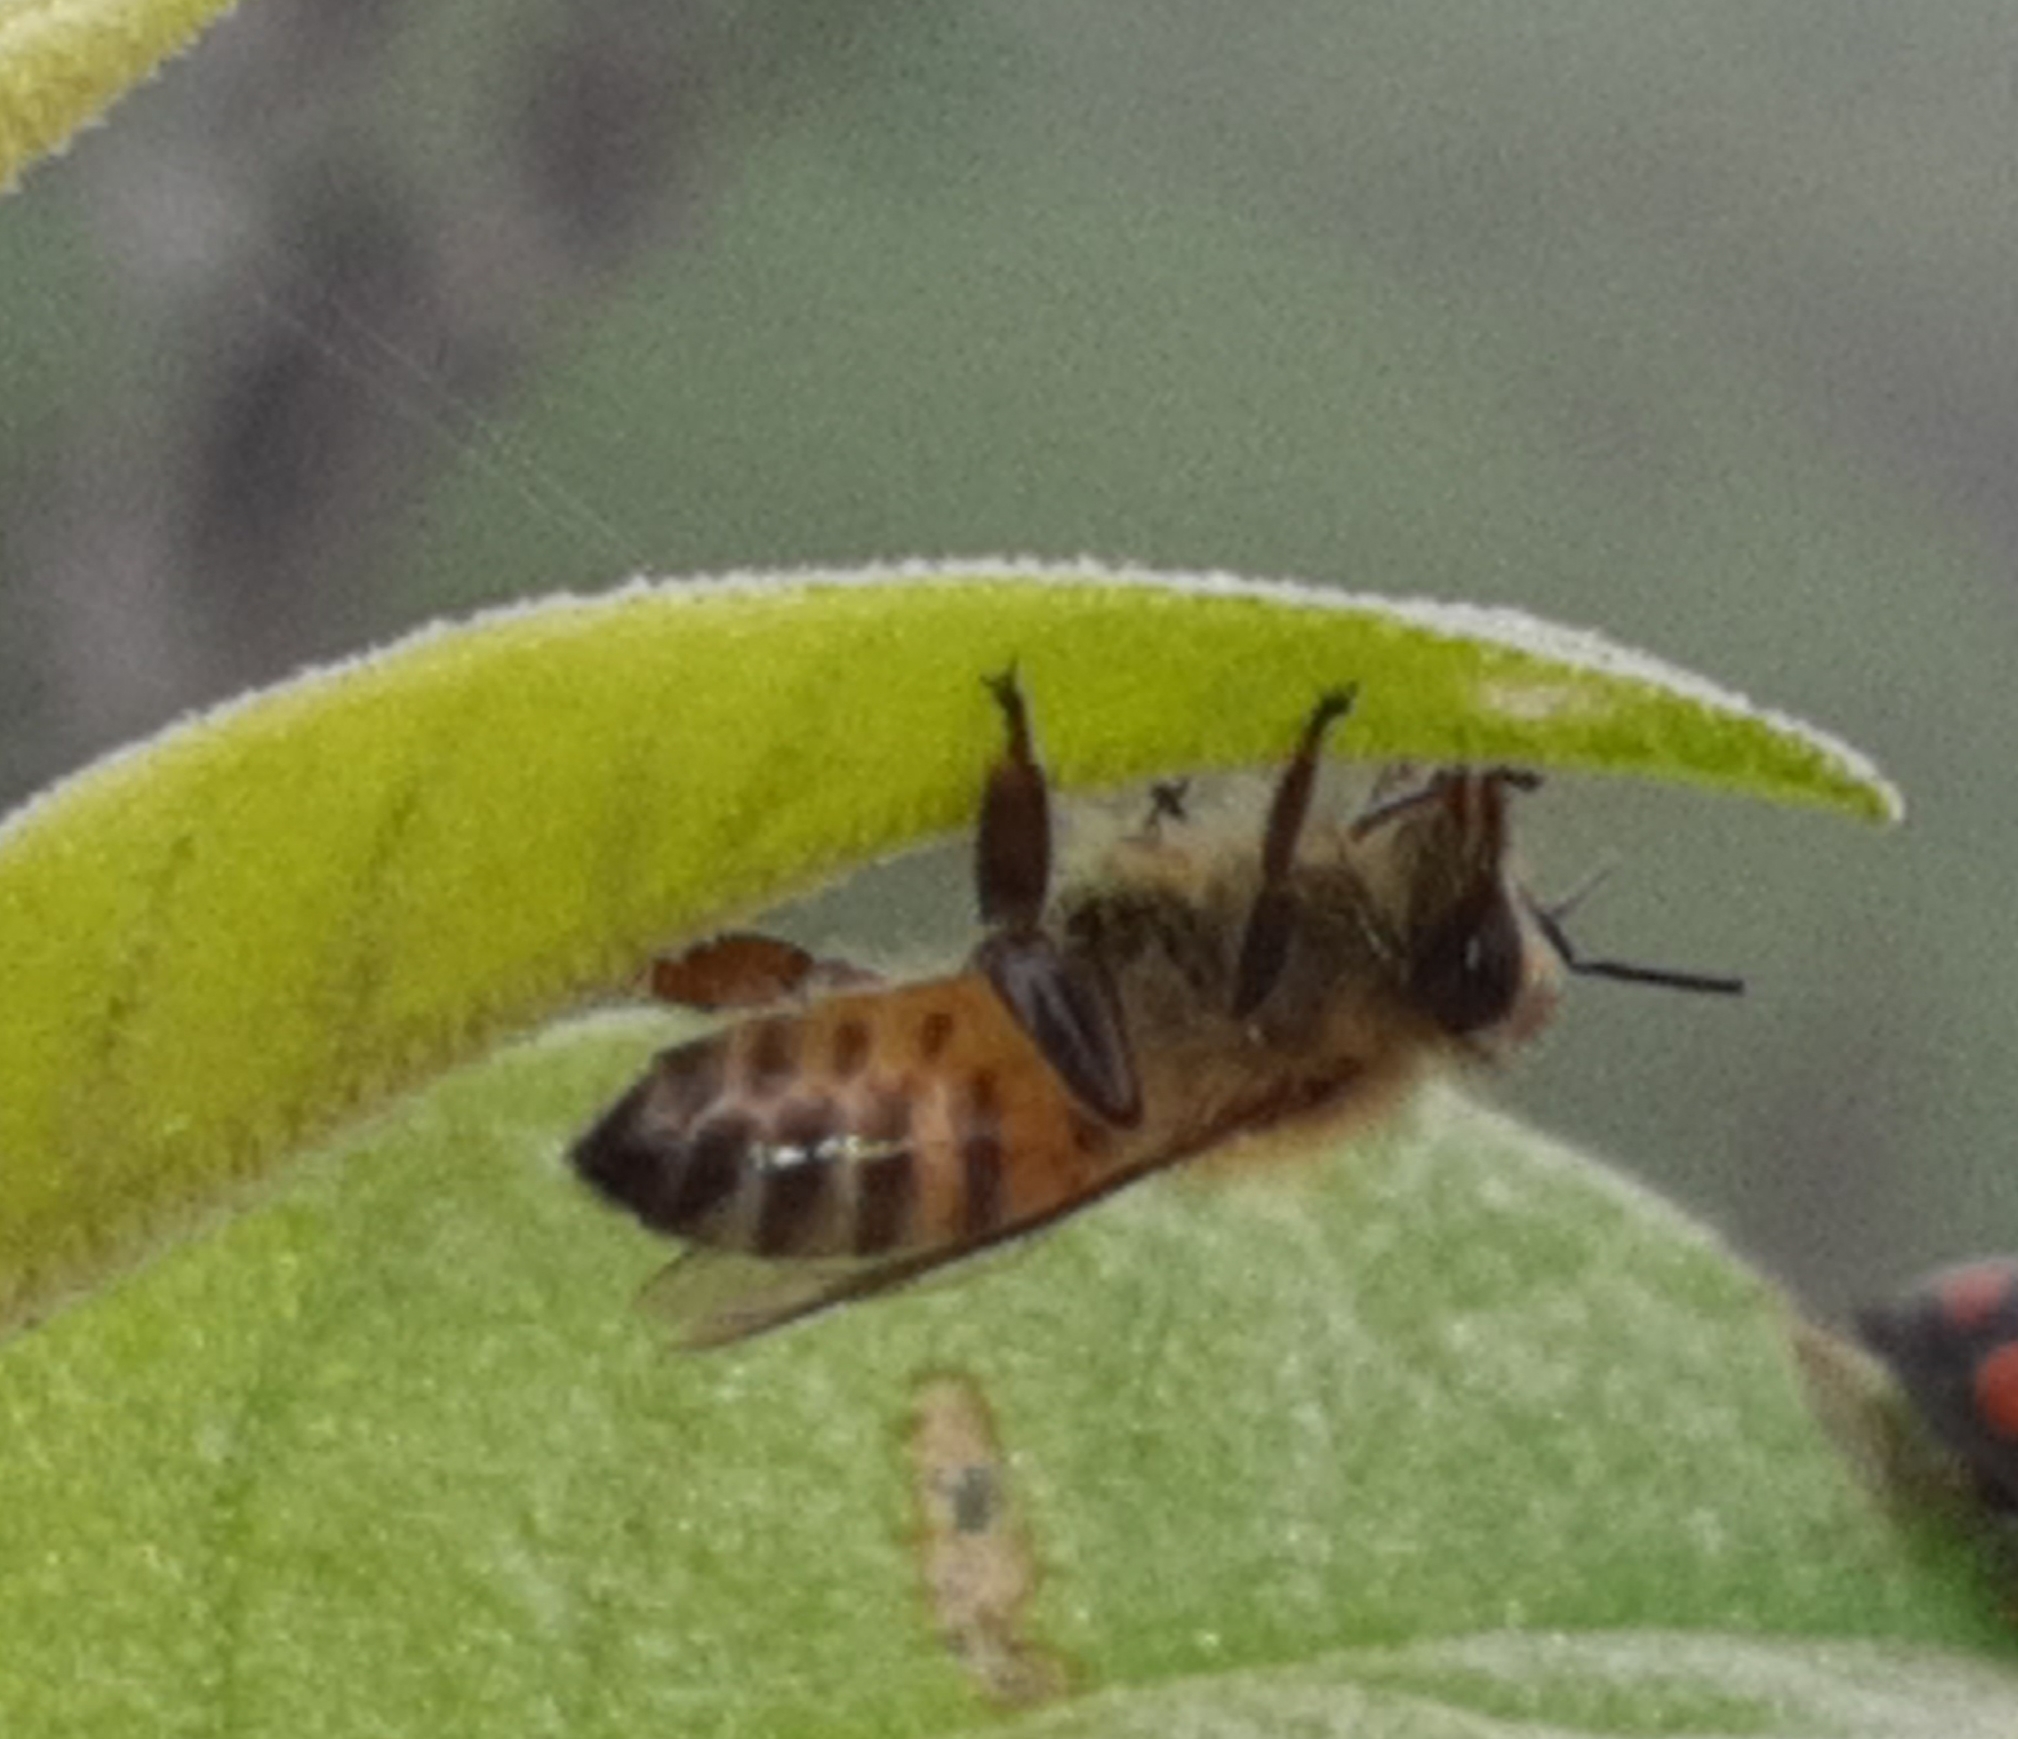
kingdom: Animalia
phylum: Arthropoda
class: Insecta
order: Hymenoptera
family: Apidae
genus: Apis
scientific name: Apis mellifera
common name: Honey bee
